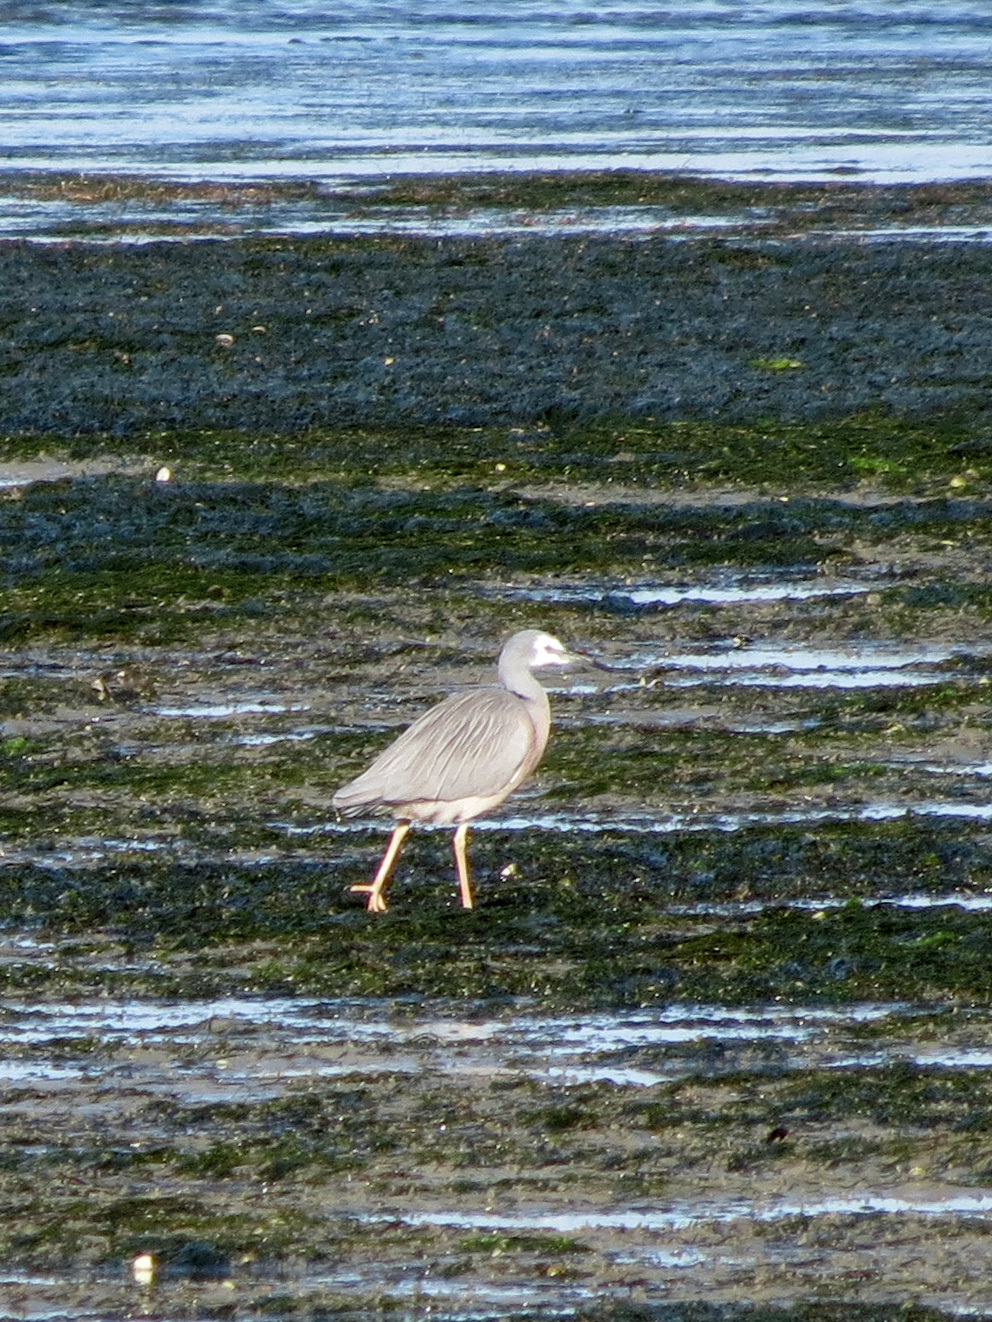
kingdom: Animalia
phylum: Chordata
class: Aves
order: Pelecaniformes
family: Ardeidae
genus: Egretta
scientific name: Egretta novaehollandiae
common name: White-faced heron
